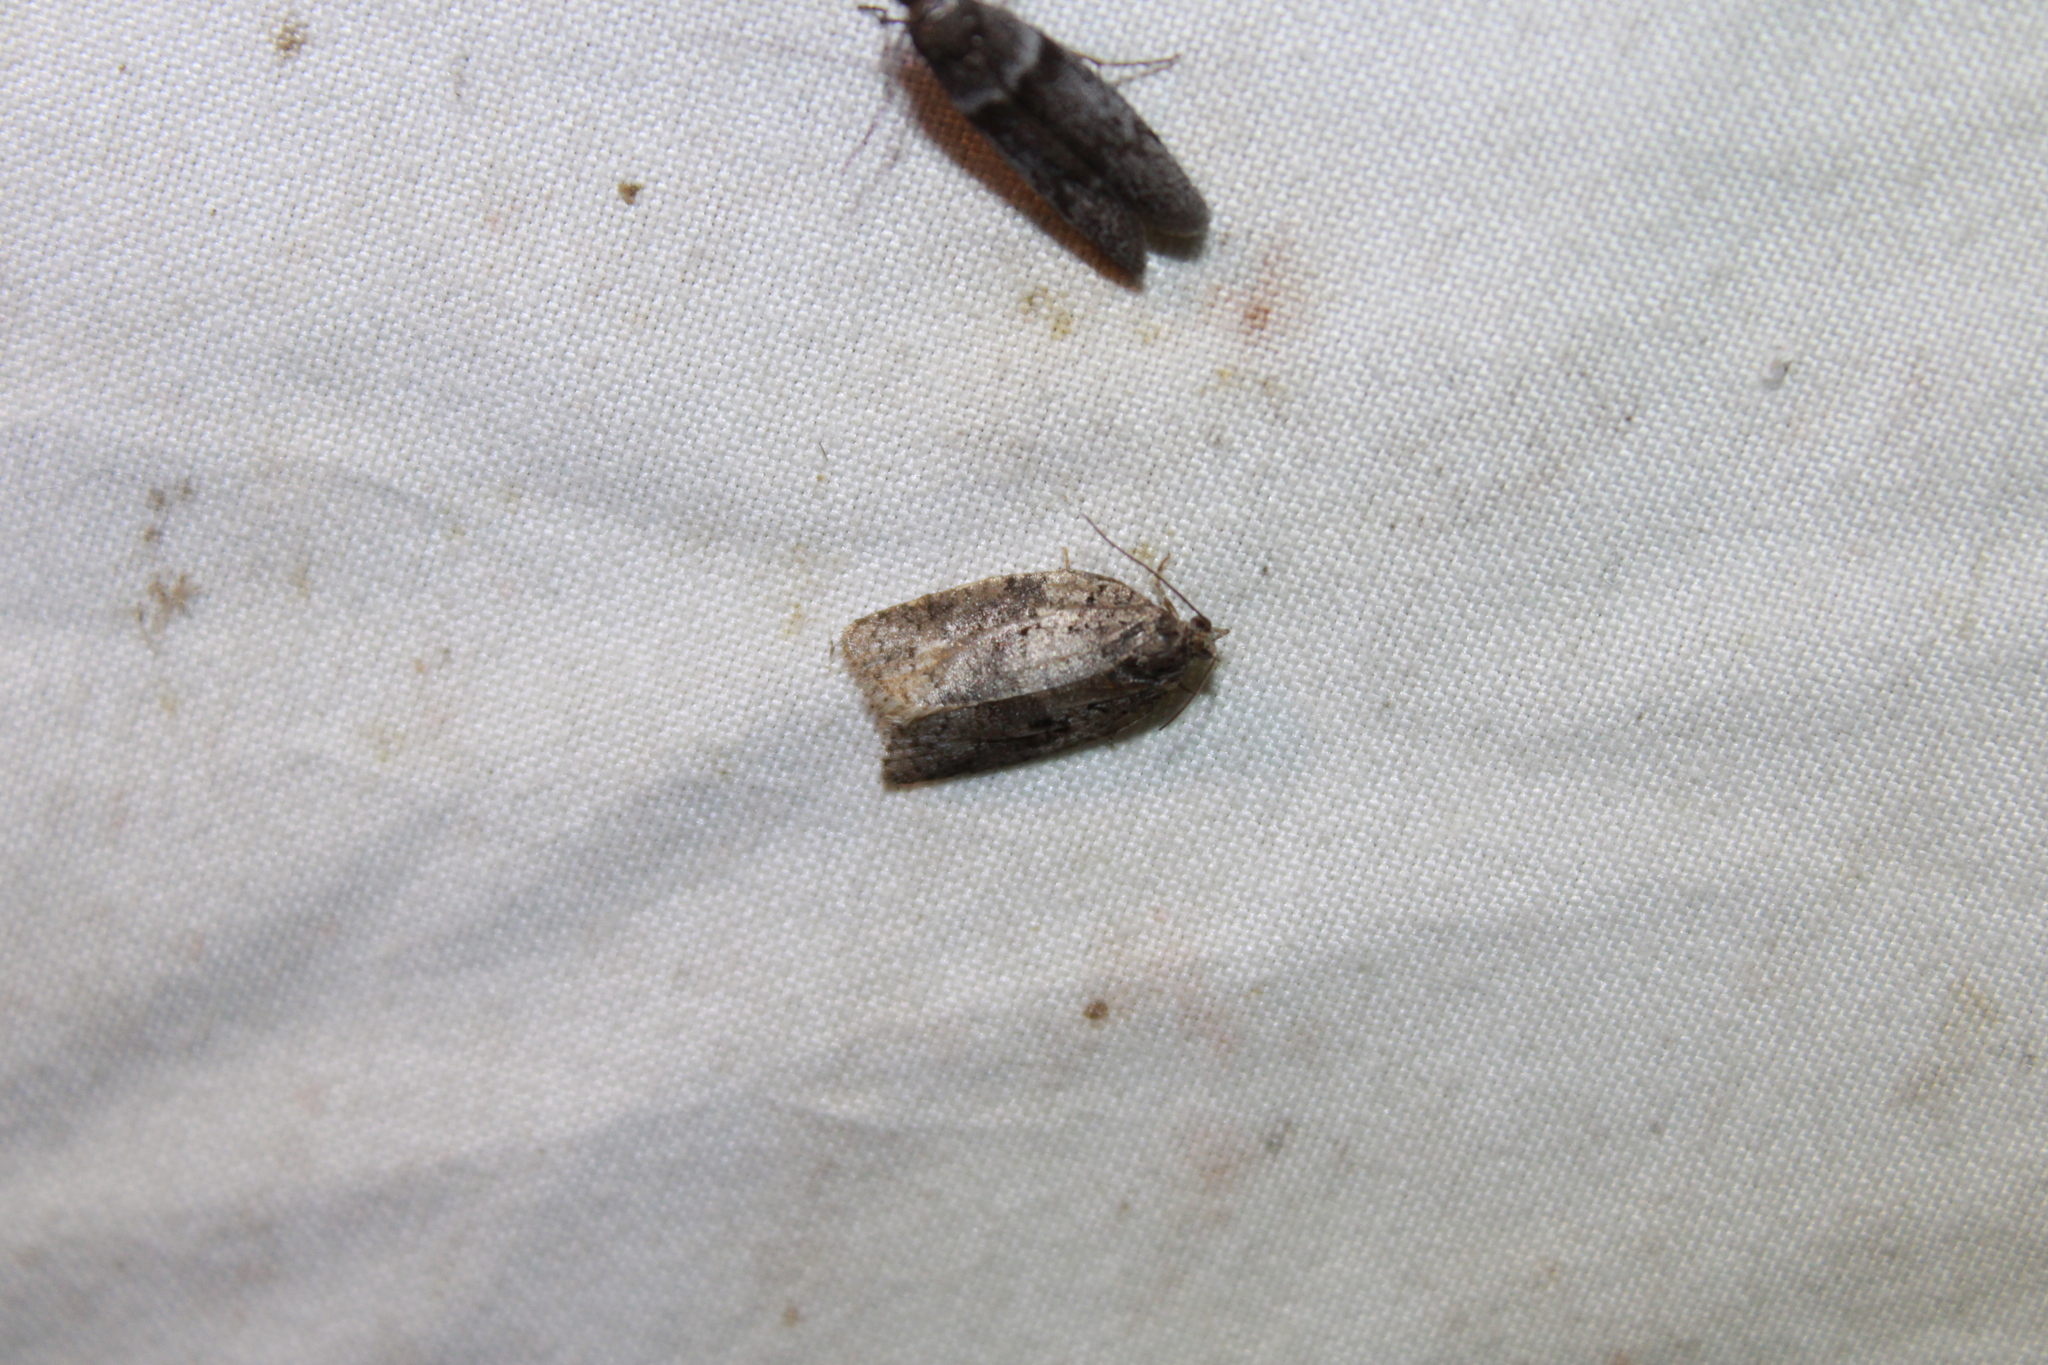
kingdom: Animalia
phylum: Arthropoda
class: Insecta
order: Lepidoptera
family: Tortricidae
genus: Syndemis
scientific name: Syndemis afflictana
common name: Gray leafroller moth
